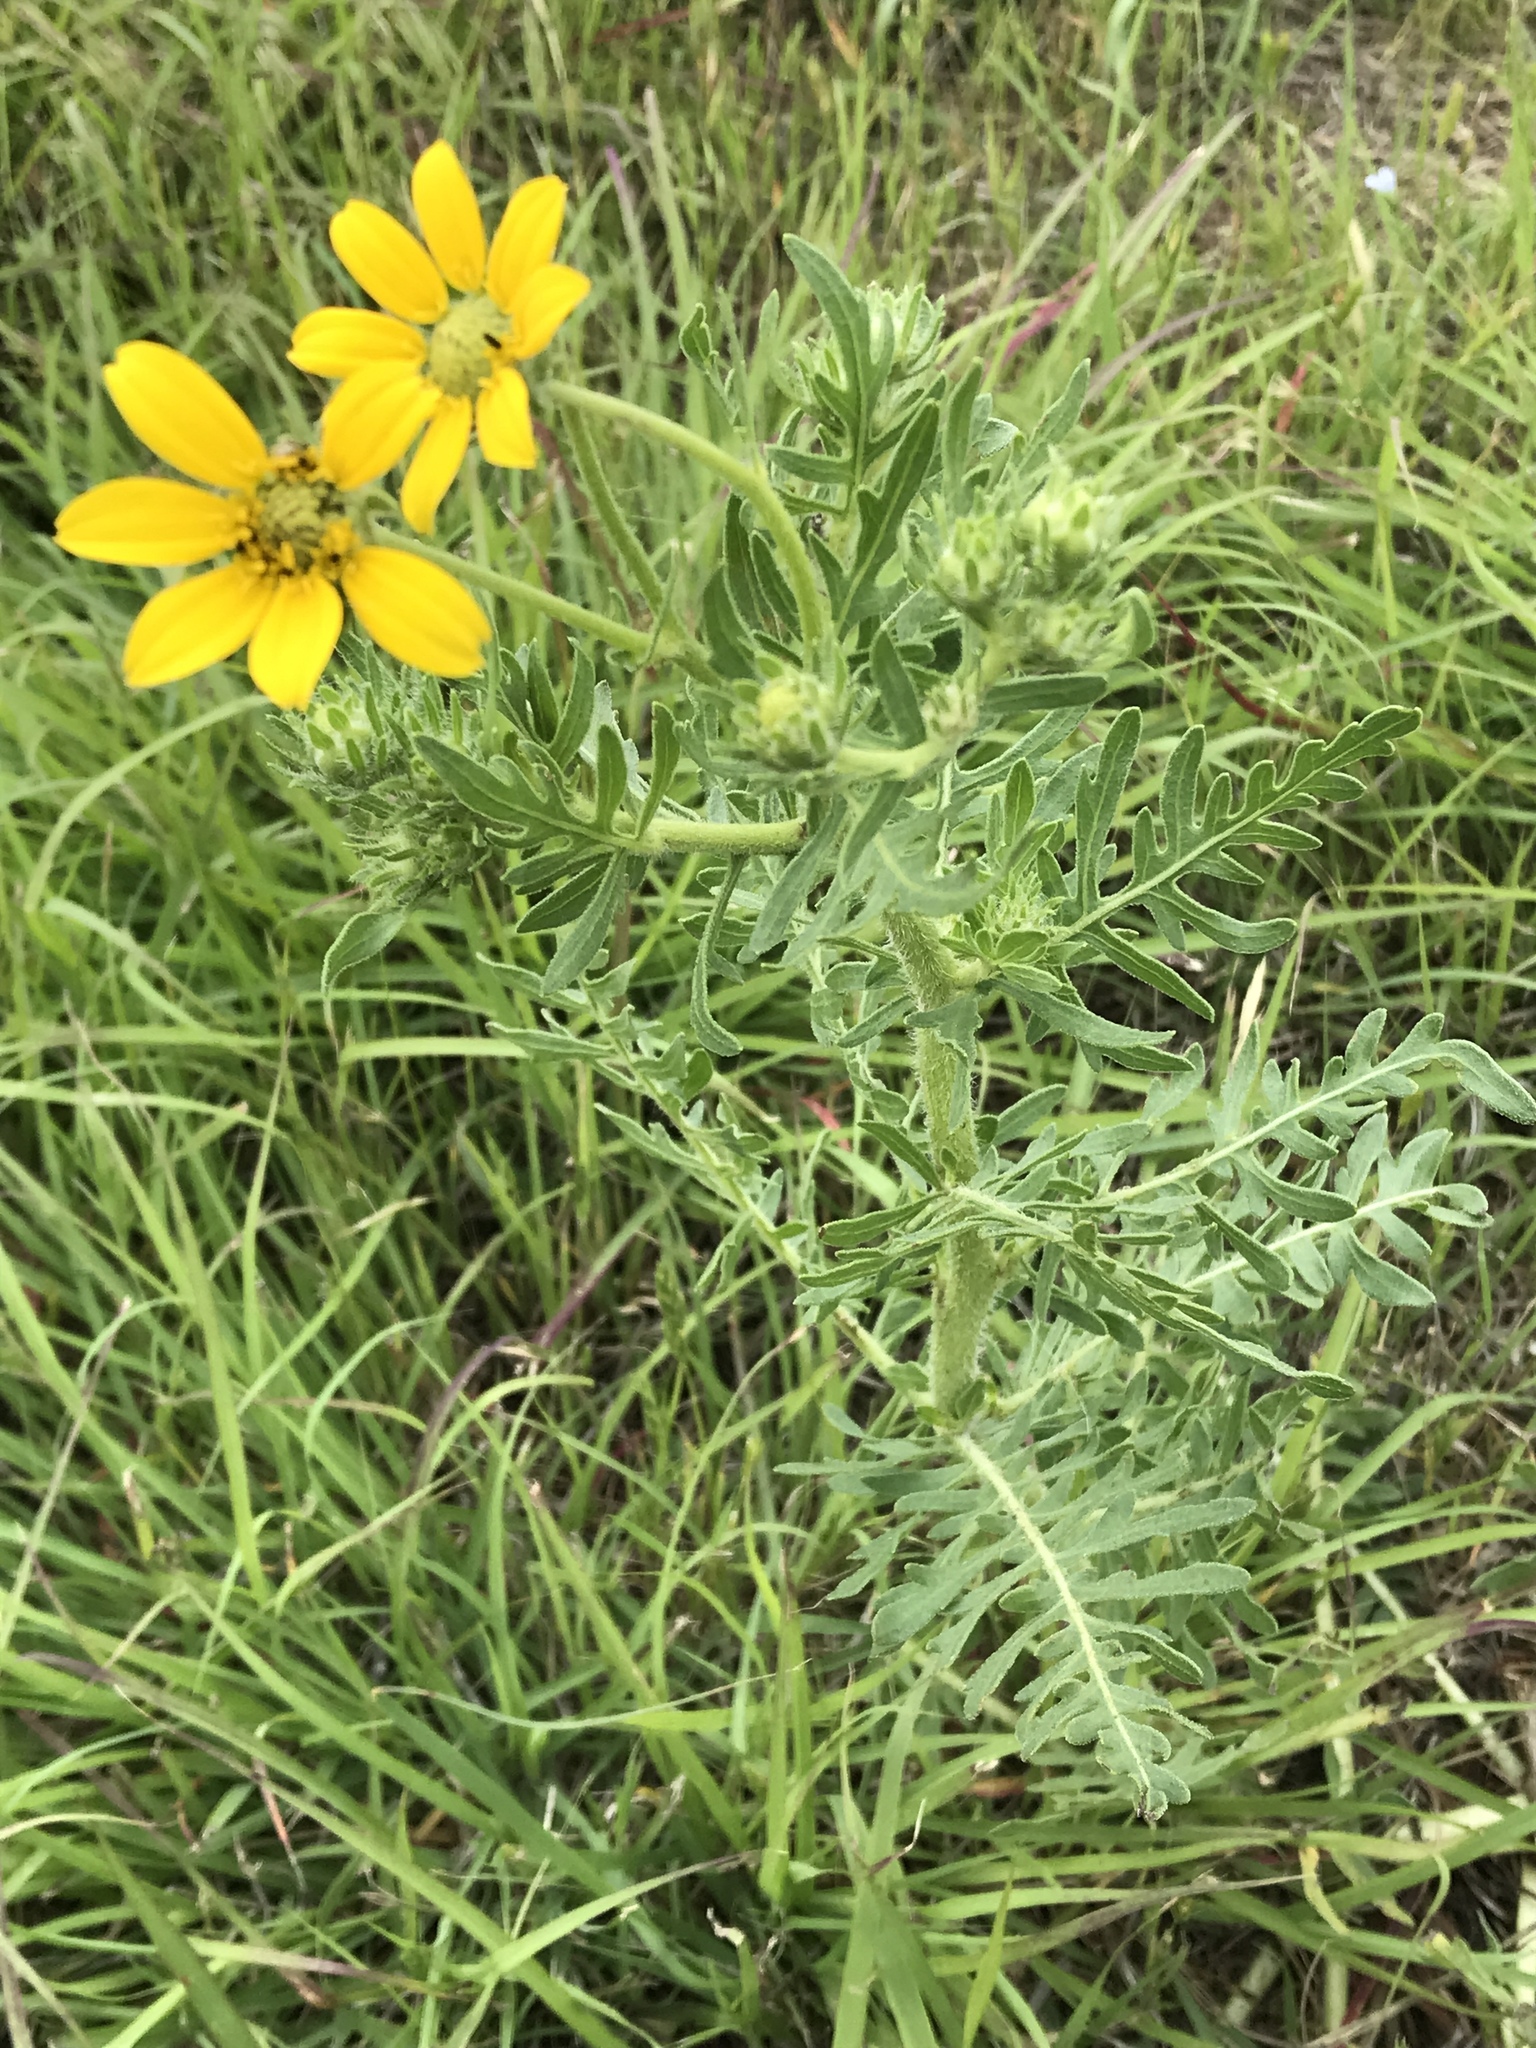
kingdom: Plantae
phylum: Tracheophyta
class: Magnoliopsida
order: Asterales
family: Asteraceae
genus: Engelmannia
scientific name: Engelmannia peristenia
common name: Engelmann's daisy
